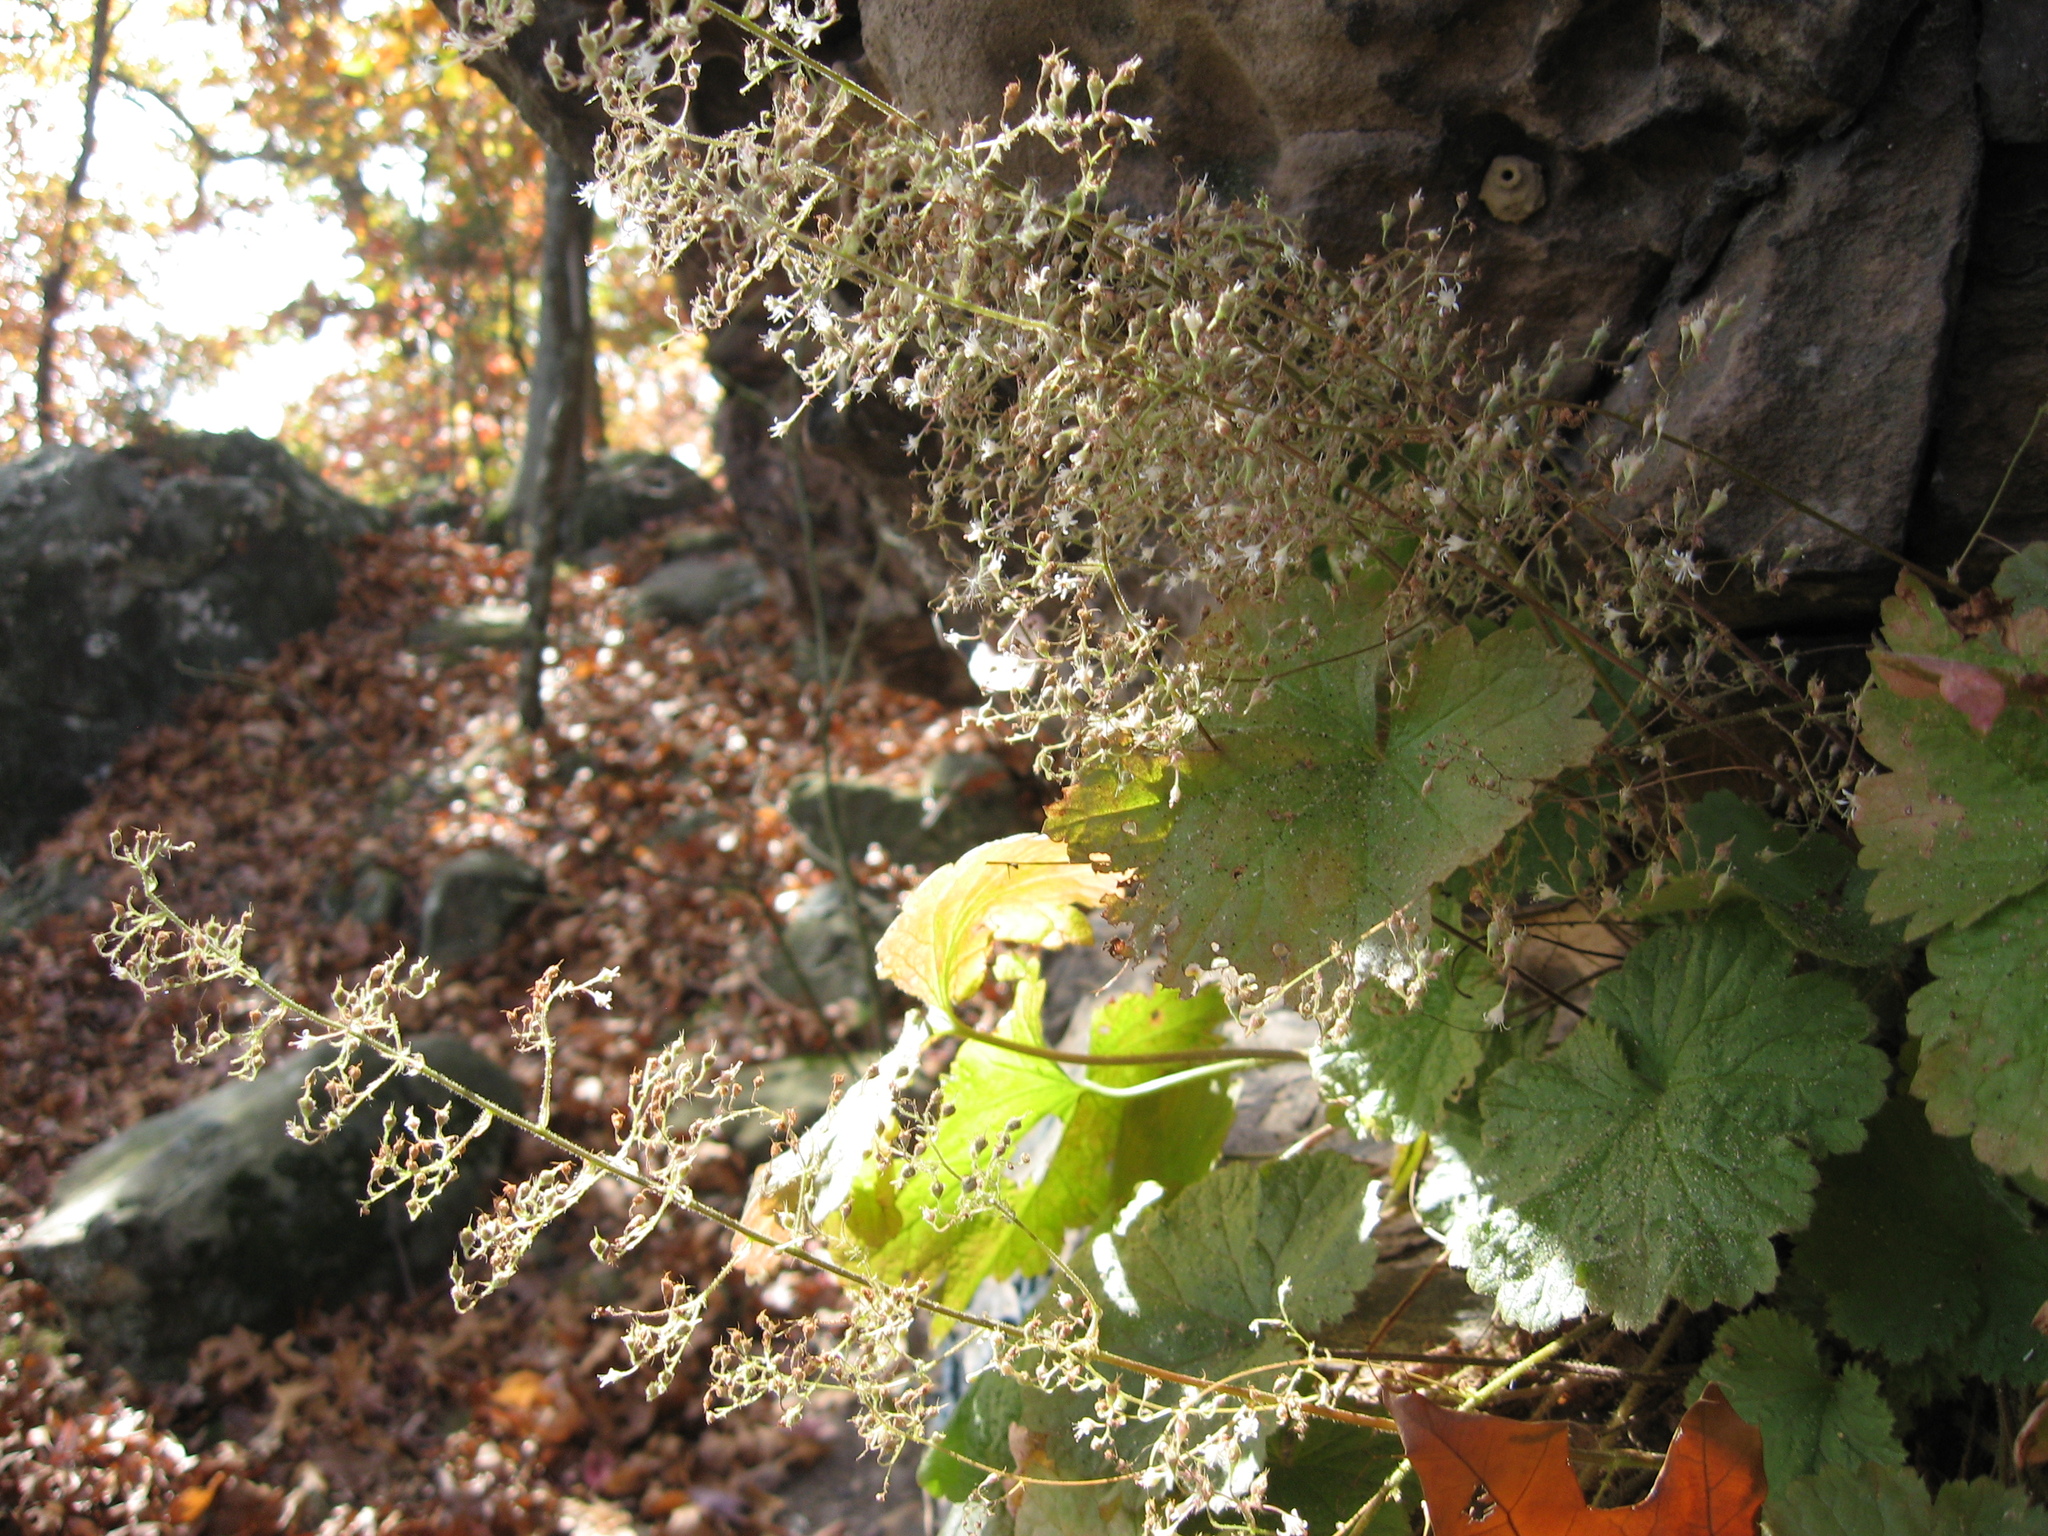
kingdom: Plantae
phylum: Tracheophyta
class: Magnoliopsida
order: Saxifragales
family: Saxifragaceae
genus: Heuchera
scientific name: Heuchera missouriensis
